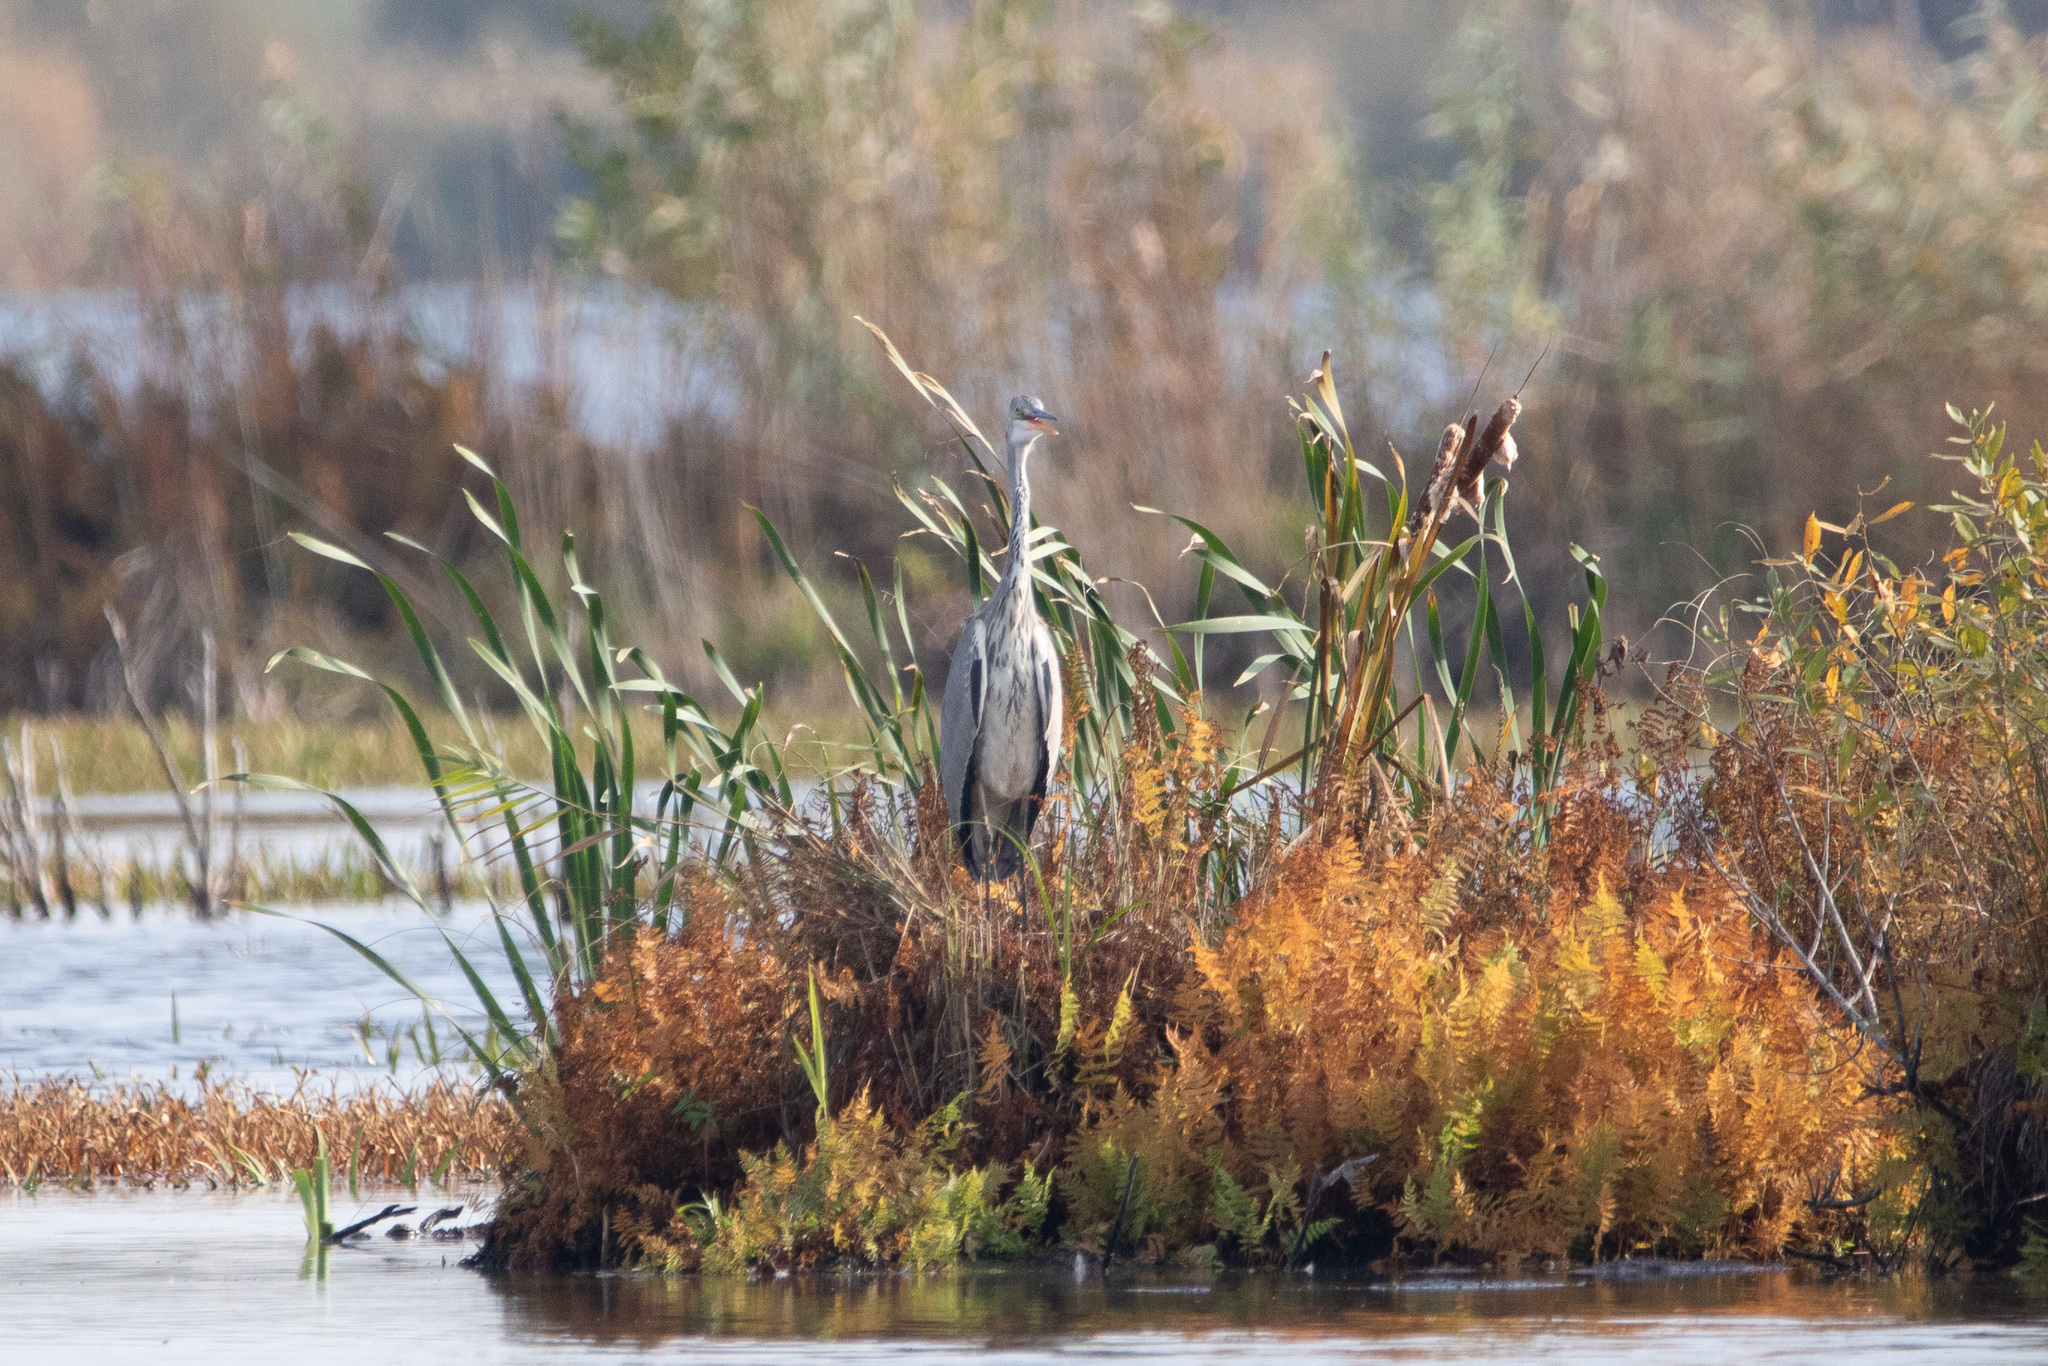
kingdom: Animalia
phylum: Chordata
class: Aves
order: Pelecaniformes
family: Ardeidae
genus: Ardea
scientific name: Ardea cinerea
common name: Grey heron
